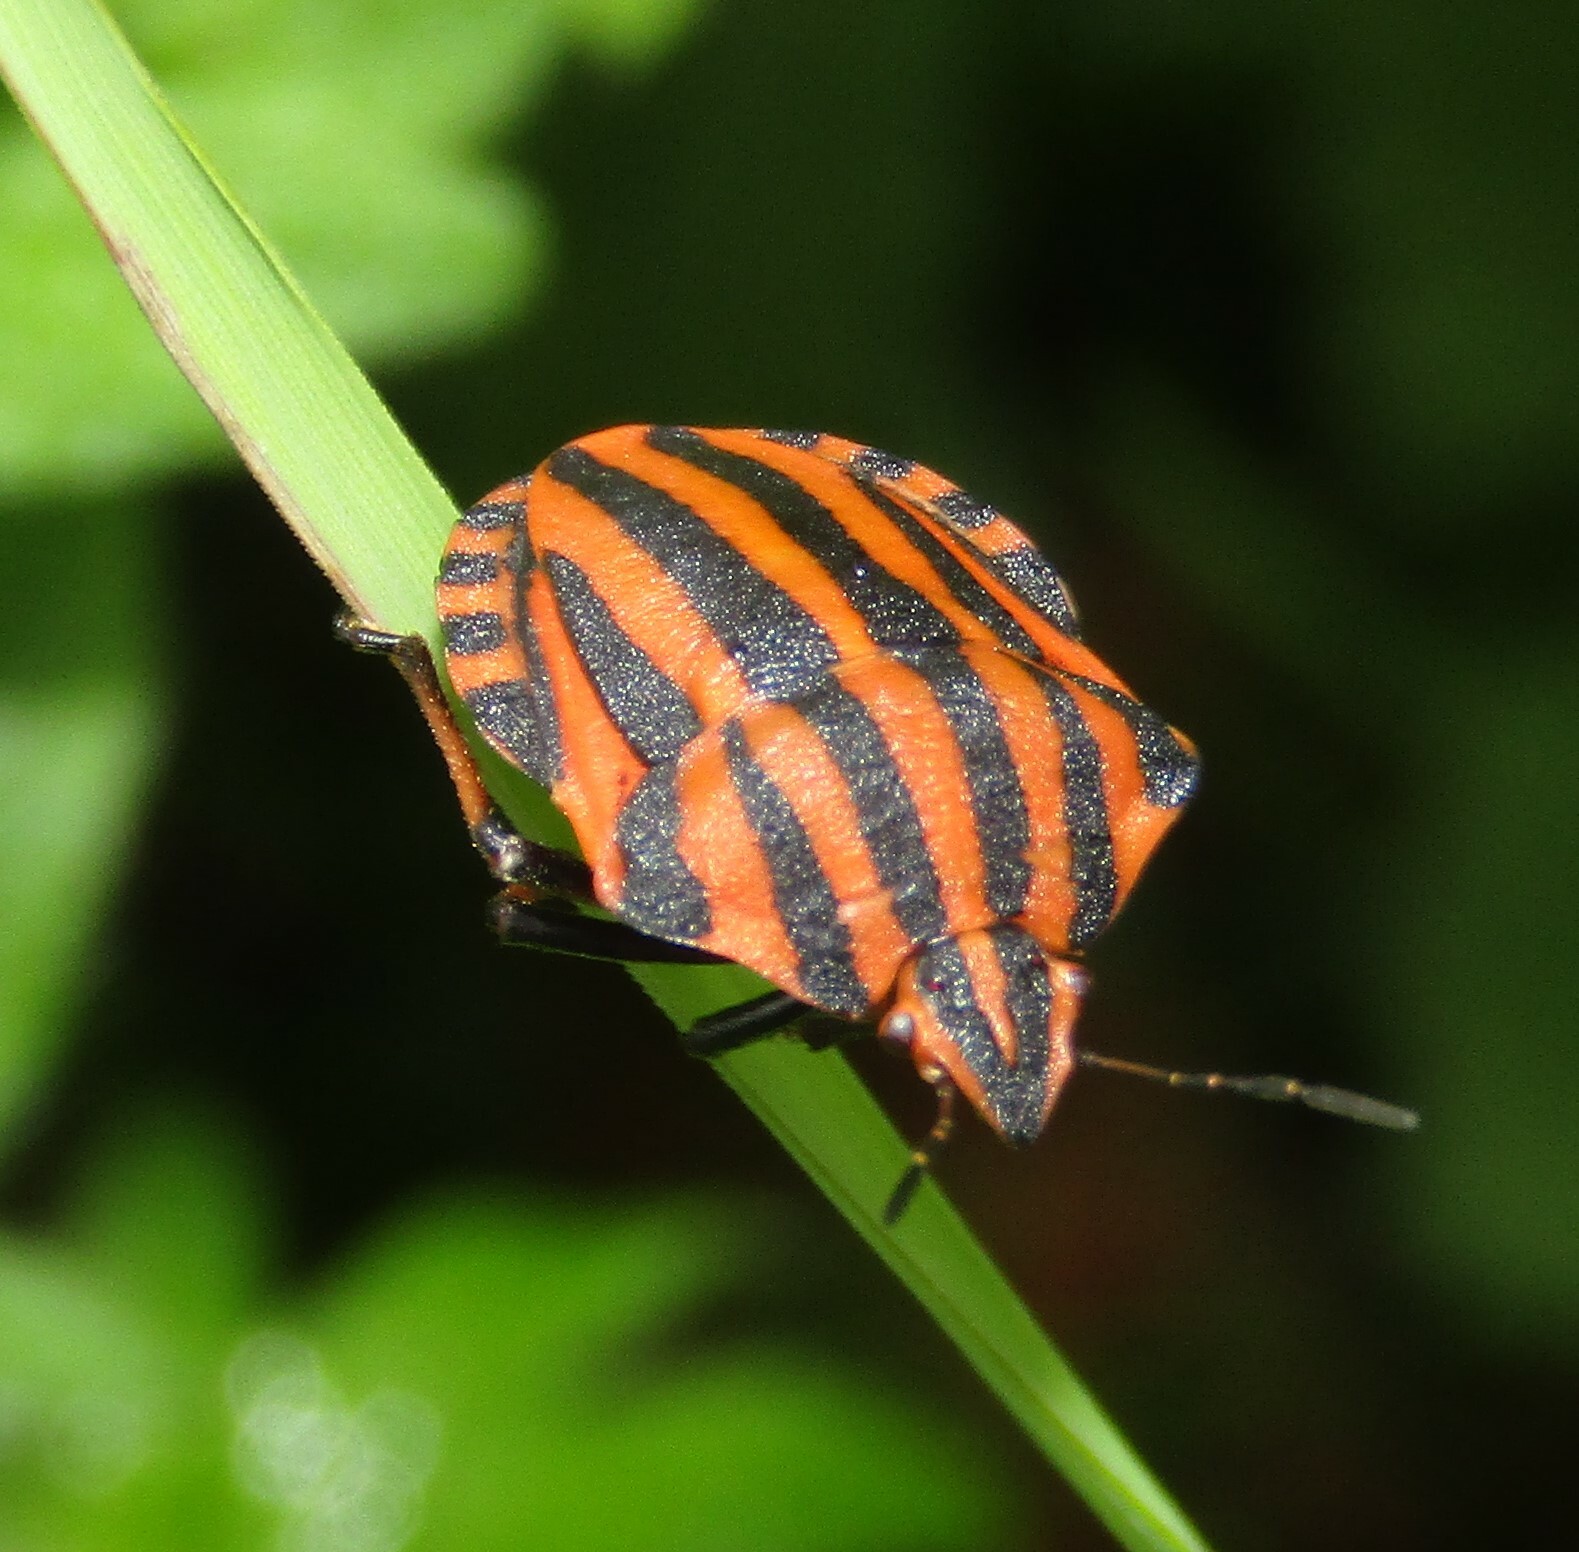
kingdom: Animalia
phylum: Arthropoda
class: Insecta
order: Hemiptera
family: Pentatomidae
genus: Graphosoma
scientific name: Graphosoma italicum
